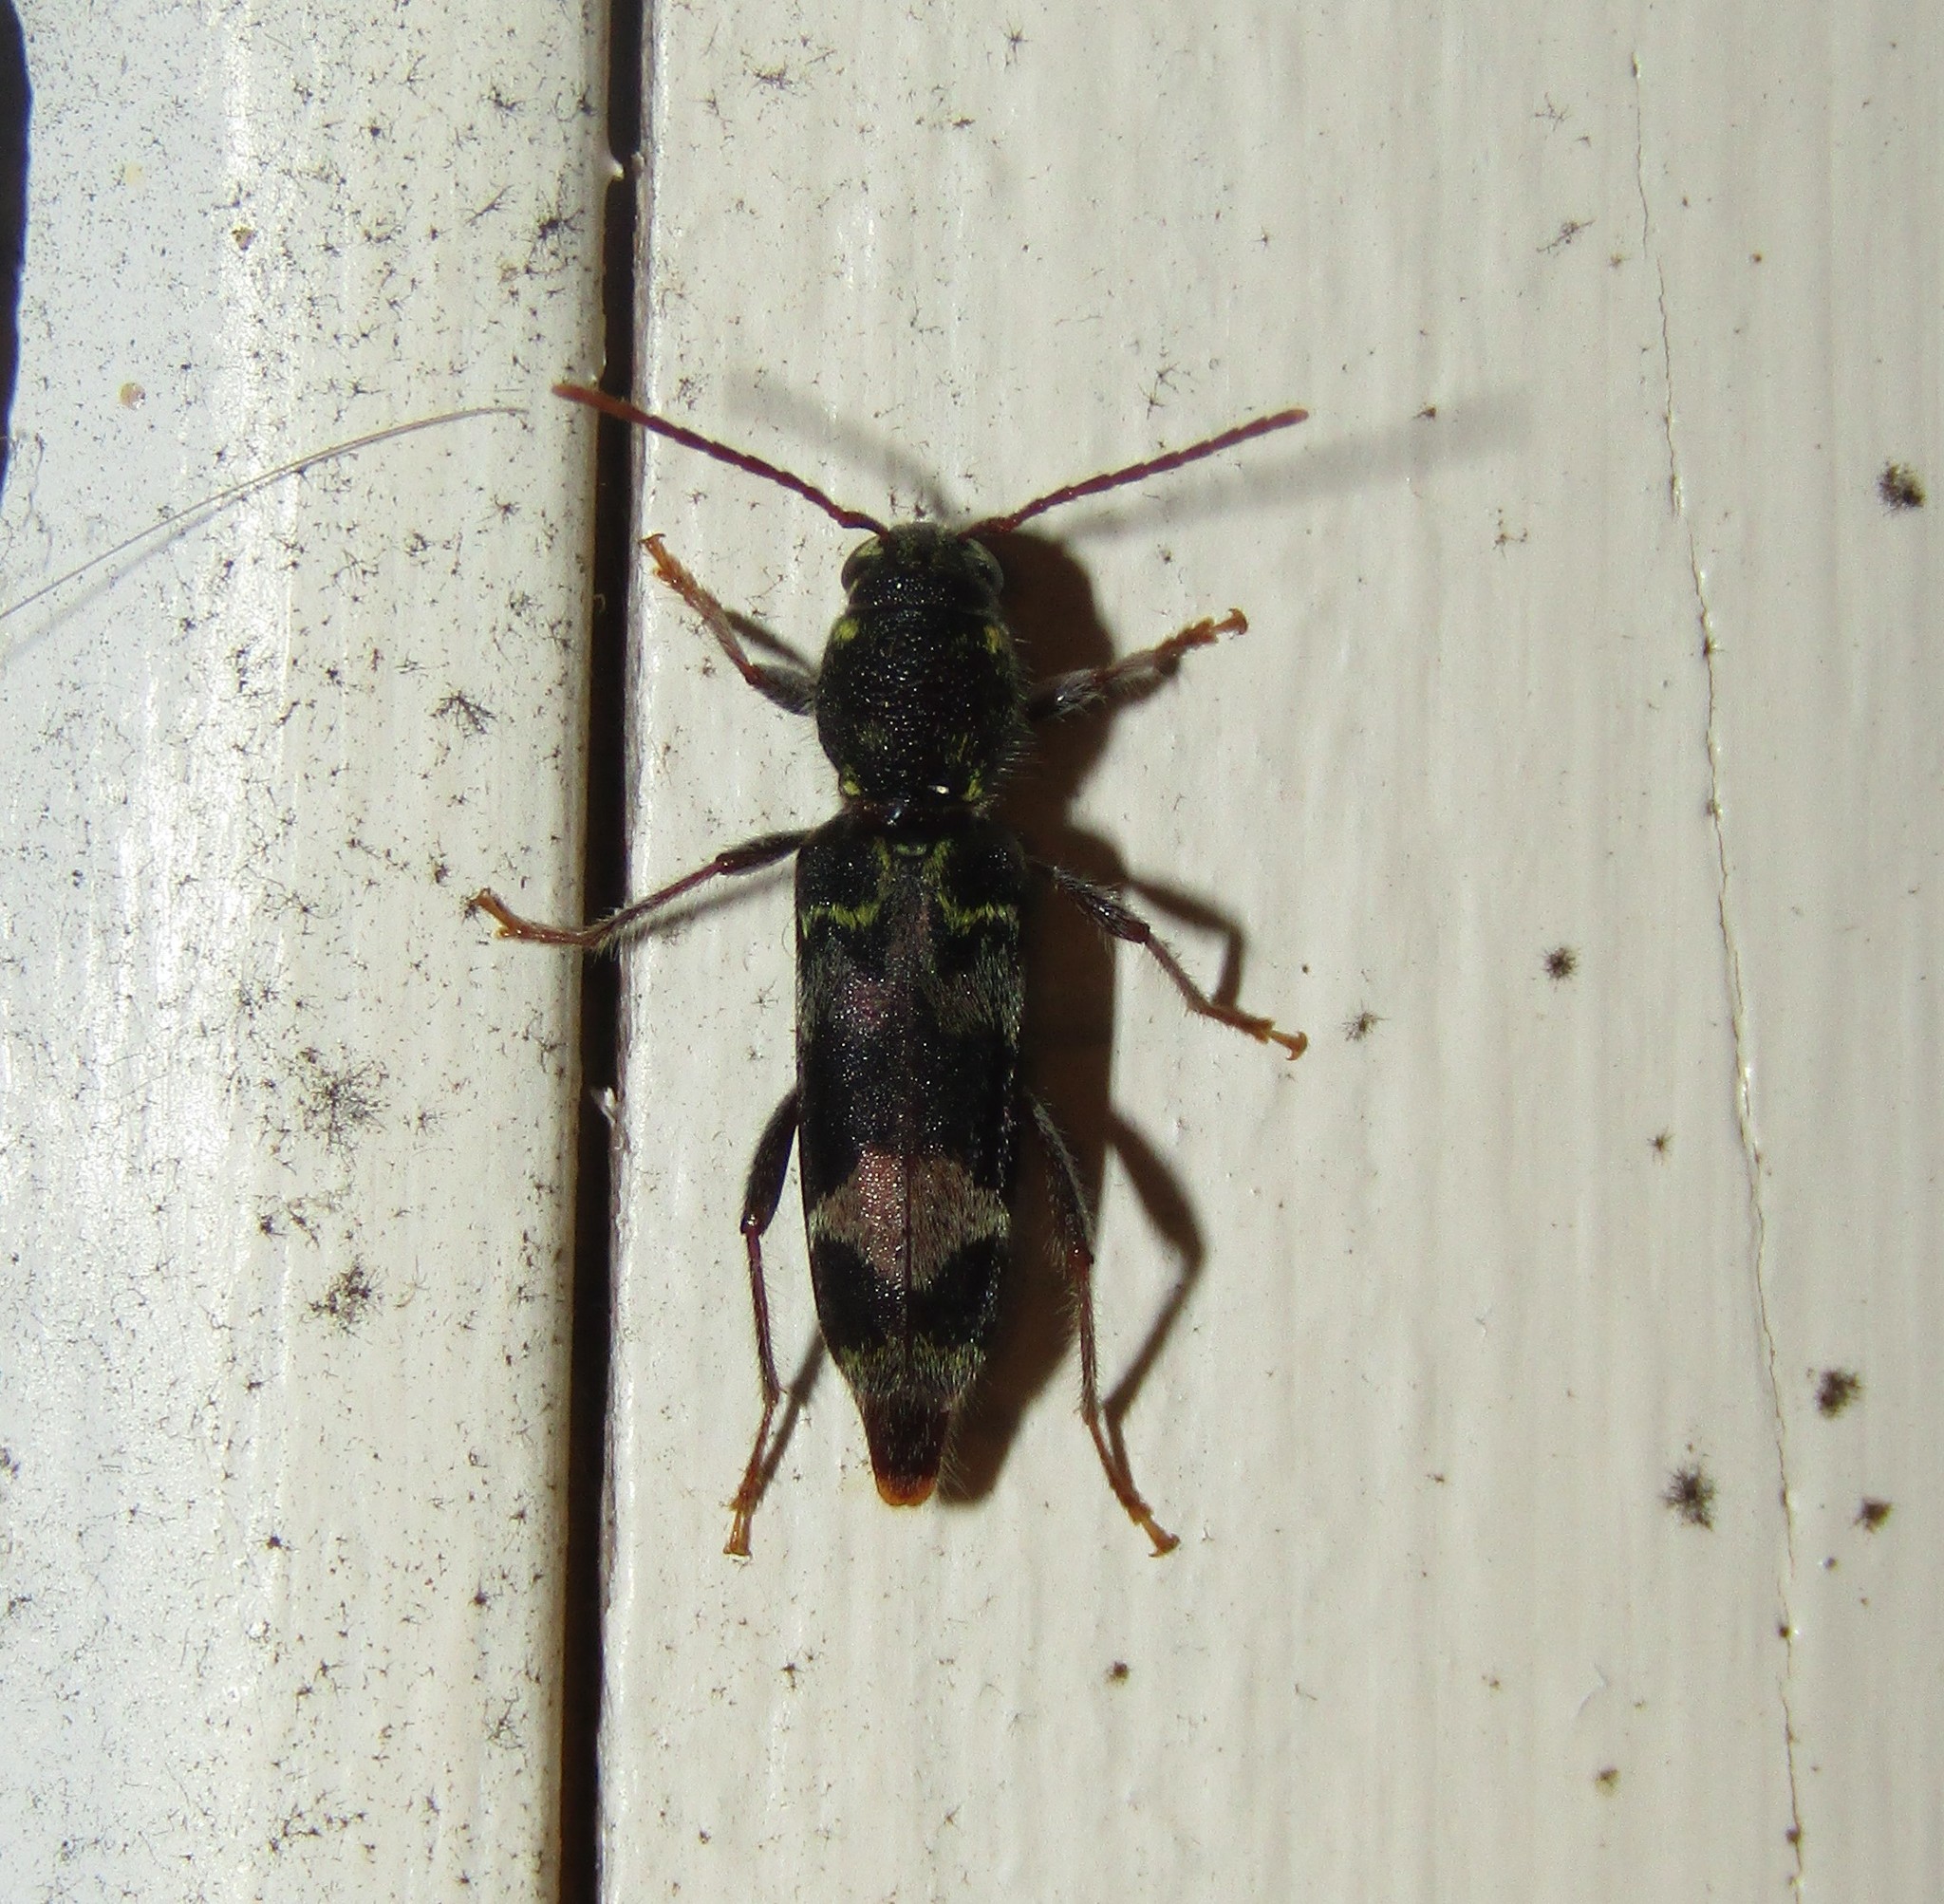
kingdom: Animalia
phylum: Arthropoda
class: Insecta
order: Coleoptera
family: Cerambycidae
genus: Xylotrechus
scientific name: Xylotrechus colonus
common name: Long-horned beetle
